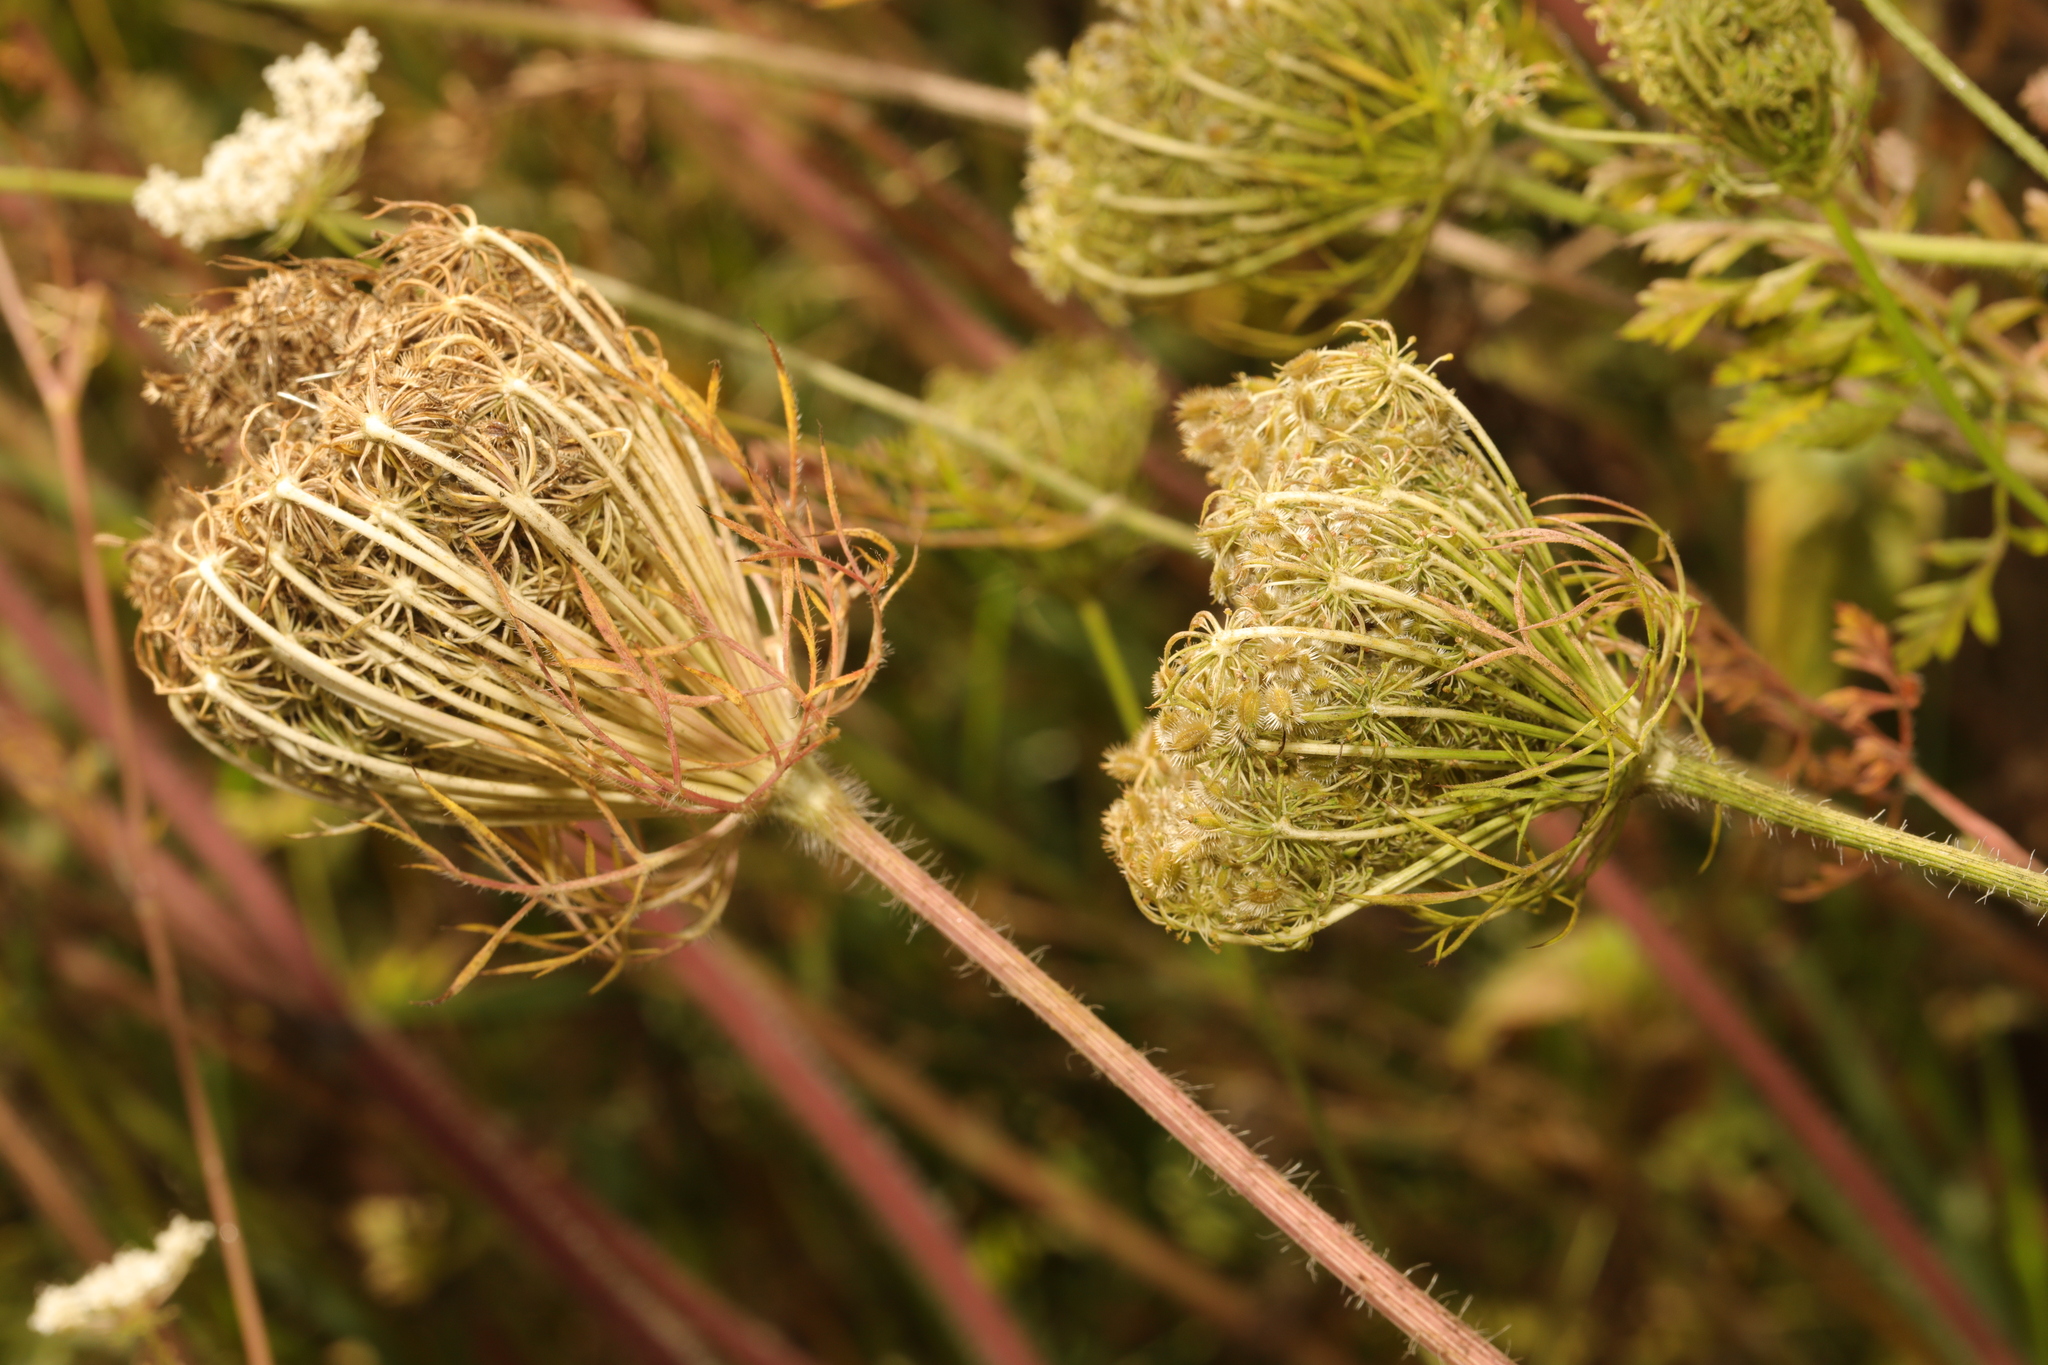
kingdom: Plantae
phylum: Tracheophyta
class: Magnoliopsida
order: Apiales
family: Apiaceae
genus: Daucus
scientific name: Daucus carota
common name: Wild carrot
